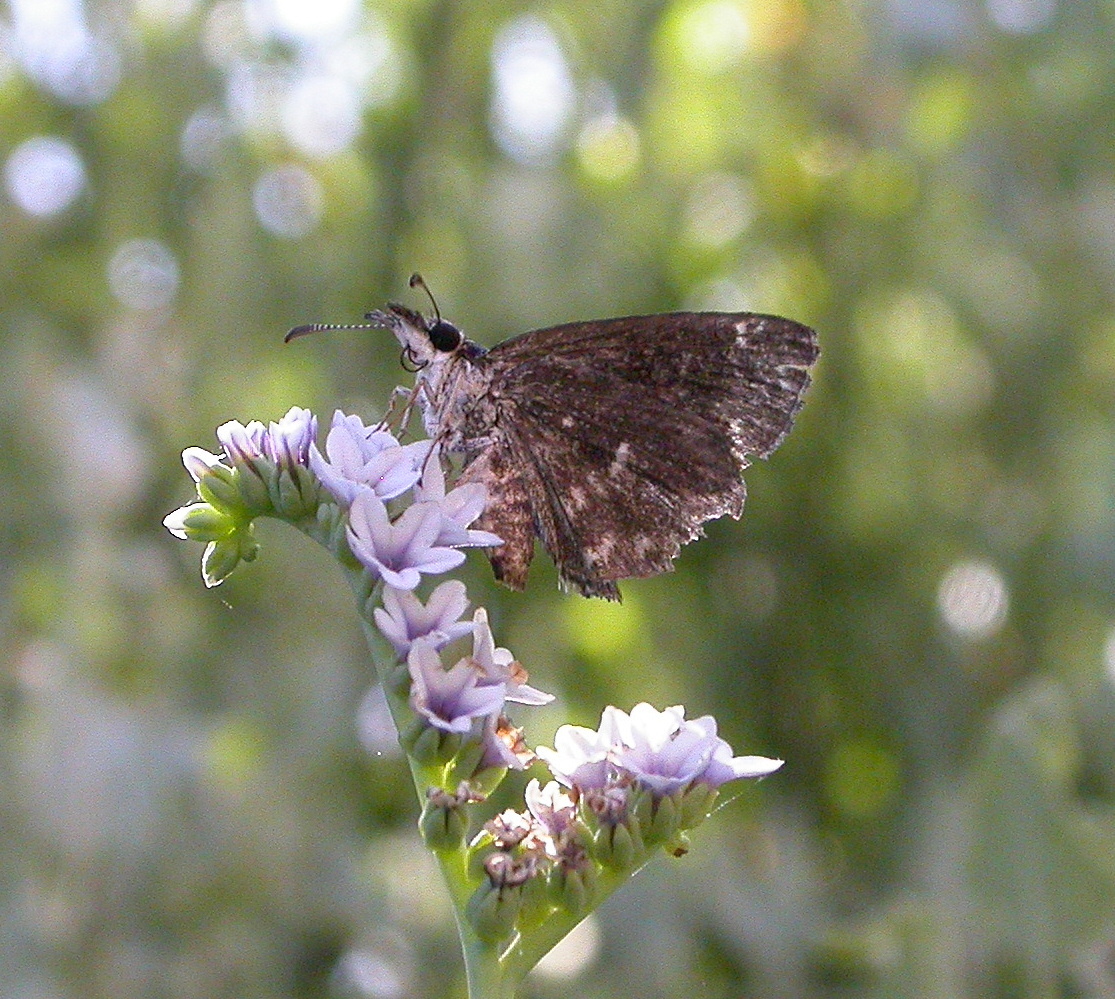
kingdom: Animalia
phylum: Arthropoda
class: Insecta
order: Lepidoptera
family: Hesperiidae
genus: Pholisora
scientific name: Pholisora gracielae
